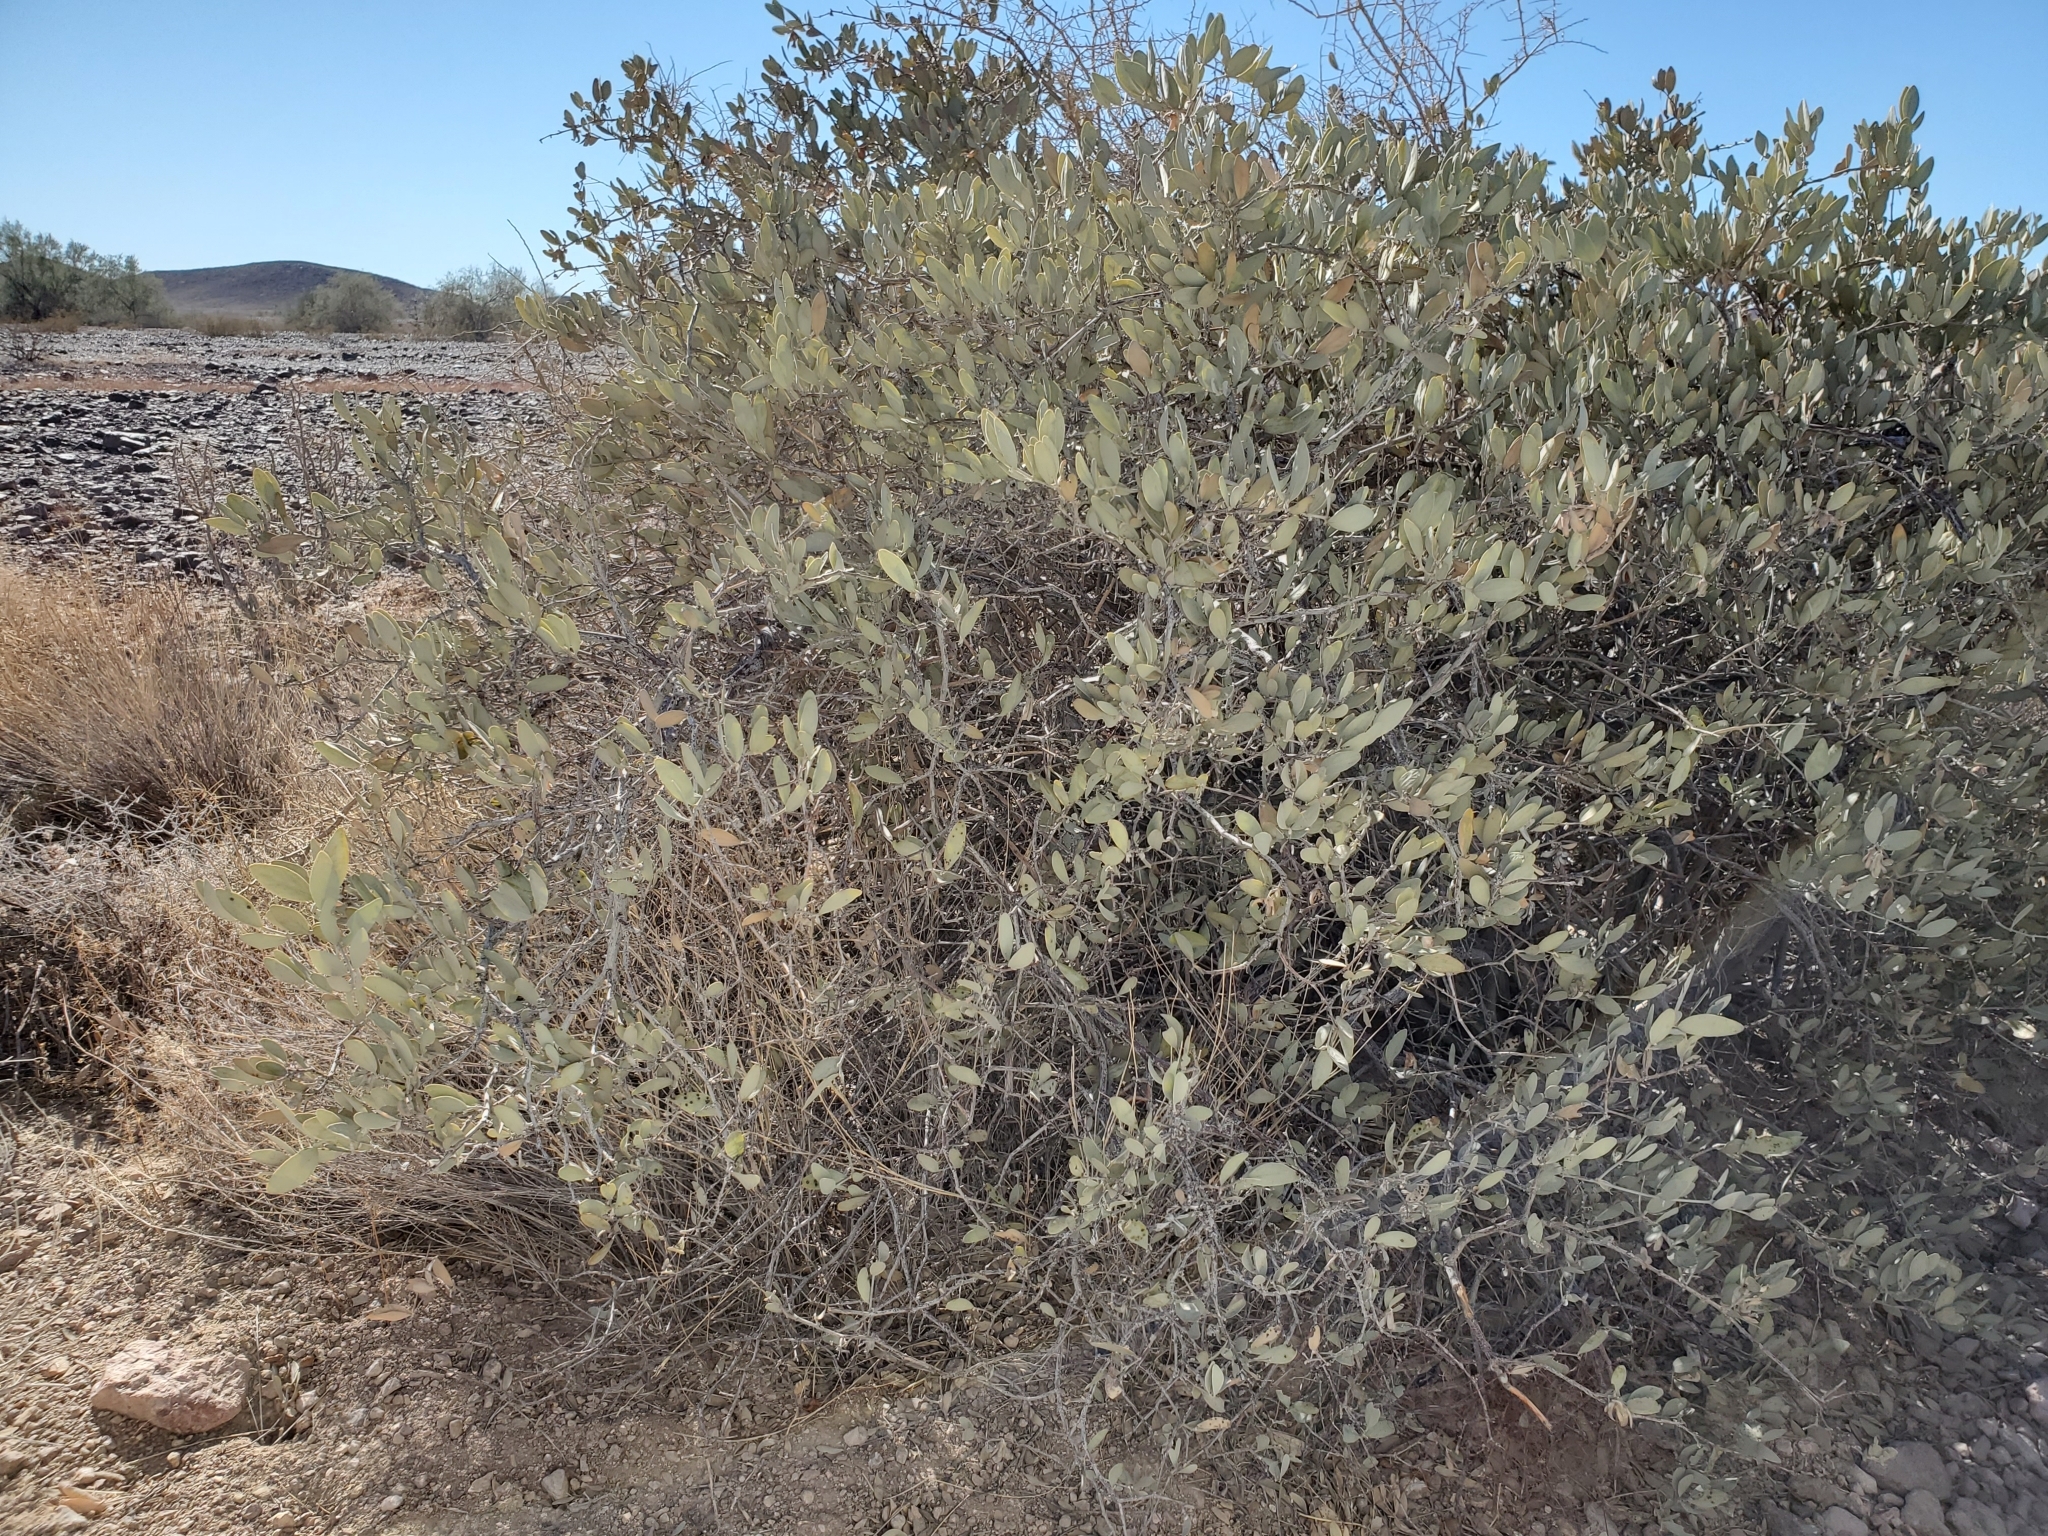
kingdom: Plantae
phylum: Tracheophyta
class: Magnoliopsida
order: Caryophyllales
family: Simmondsiaceae
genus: Simmondsia
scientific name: Simmondsia chinensis
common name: Jojoba
